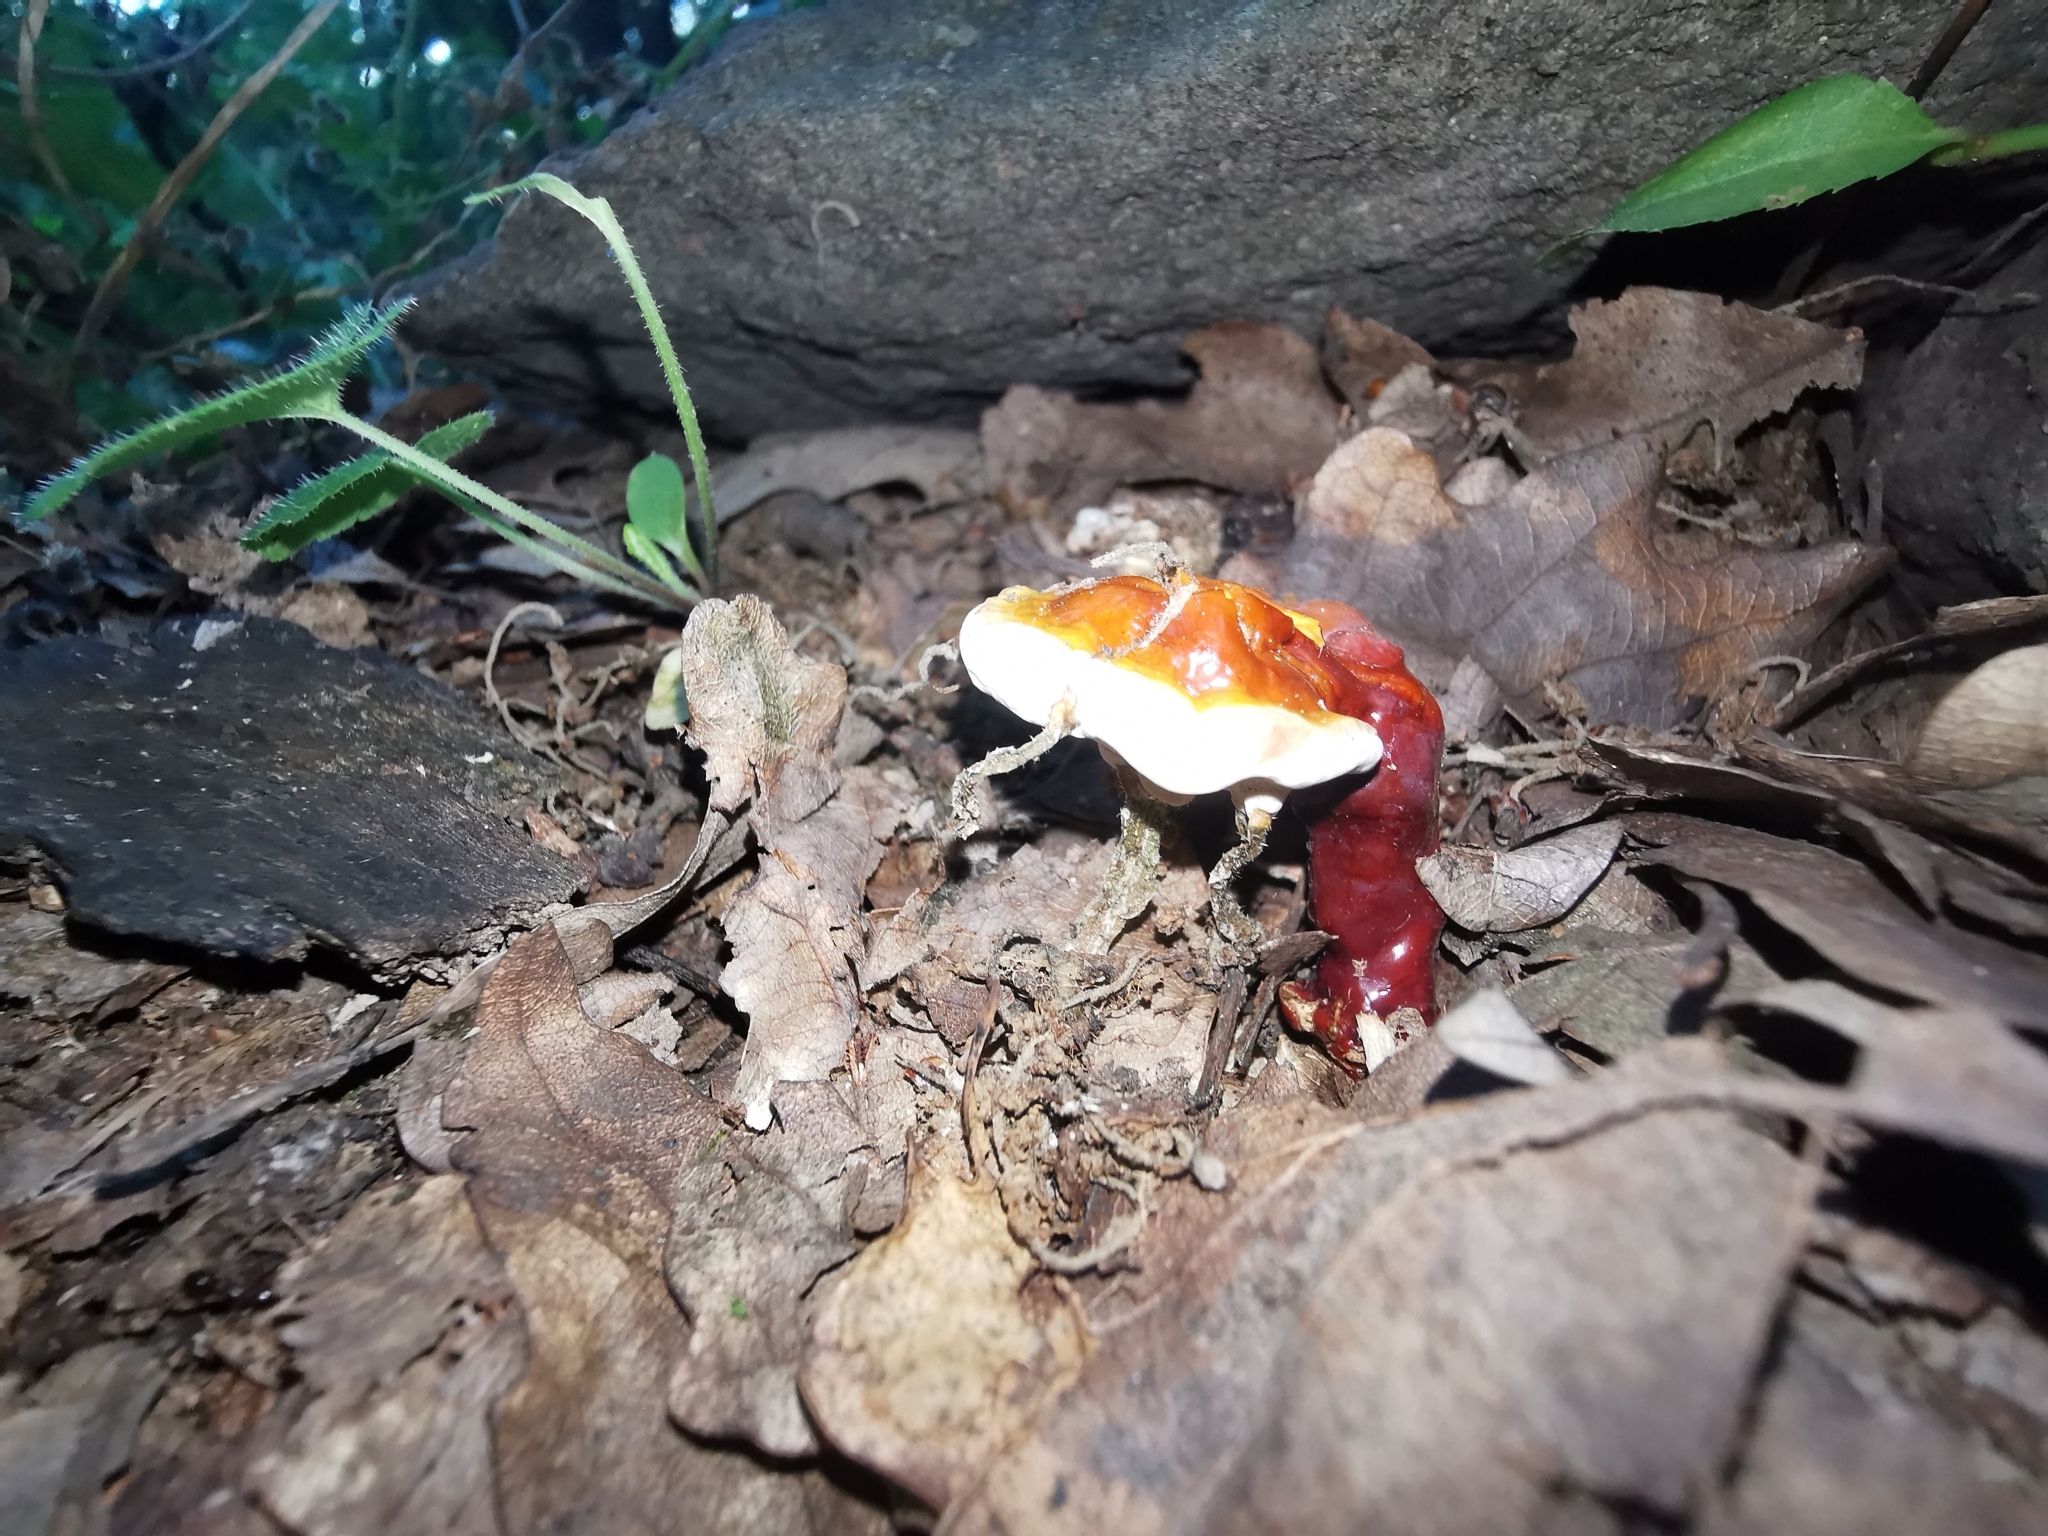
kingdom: Fungi
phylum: Basidiomycota
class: Agaricomycetes
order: Polyporales
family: Polyporaceae
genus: Ganoderma
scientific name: Ganoderma lucidum
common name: Lacquered bracket
